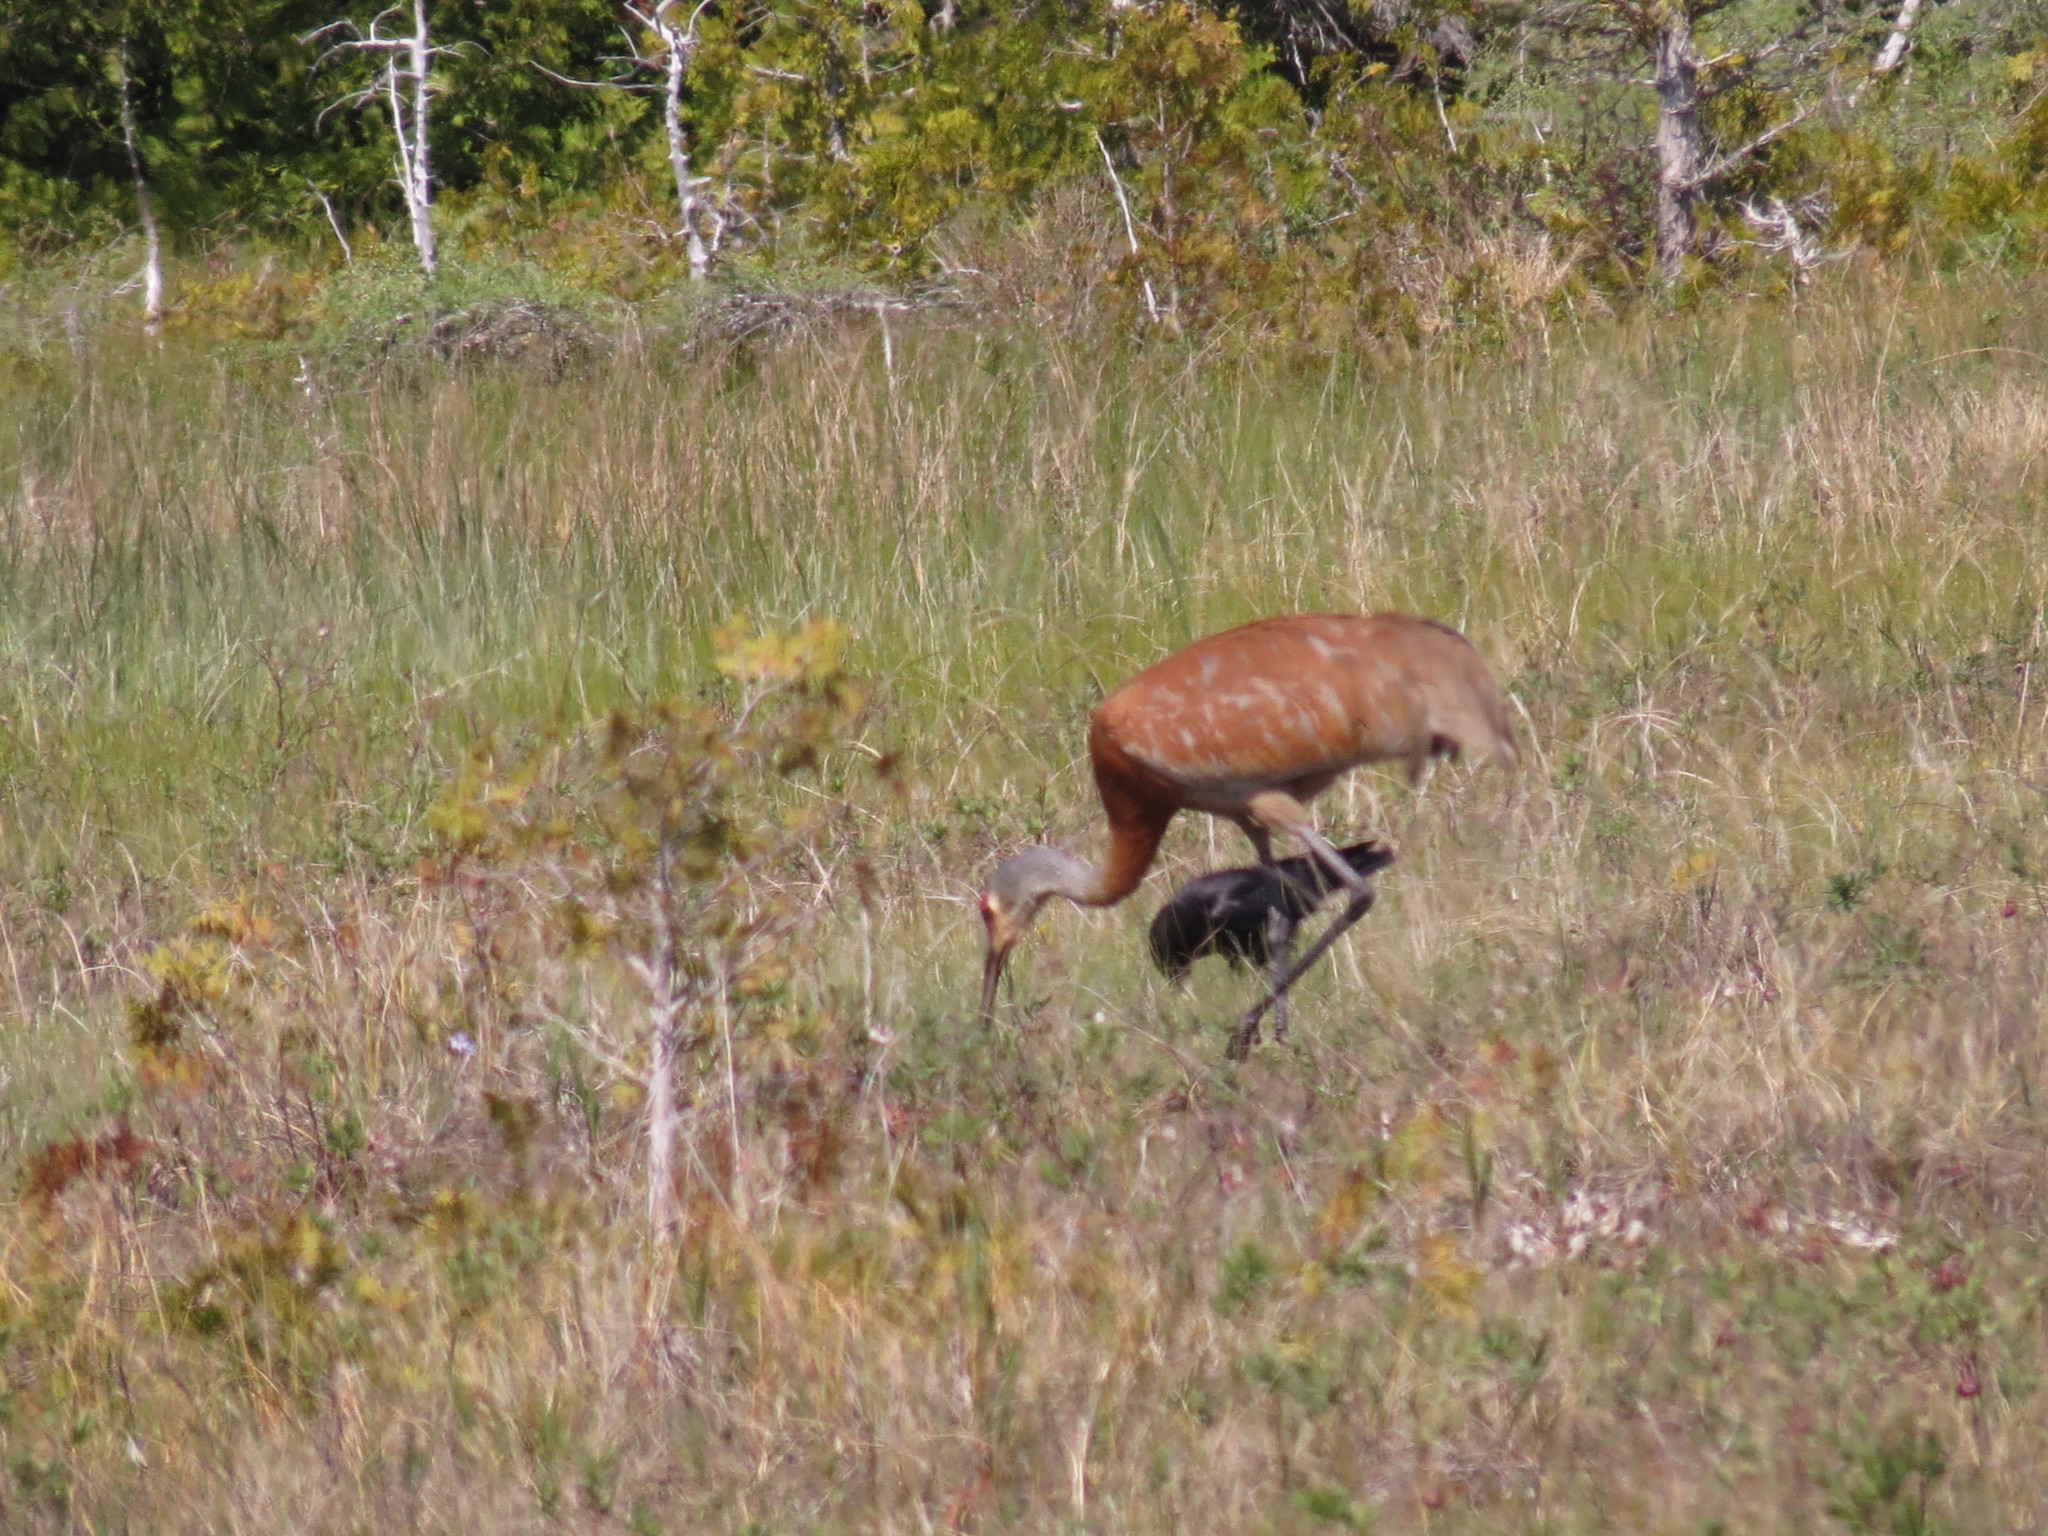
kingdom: Animalia
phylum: Chordata
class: Aves
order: Gruiformes
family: Gruidae
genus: Grus
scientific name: Grus canadensis
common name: Sandhill crane
